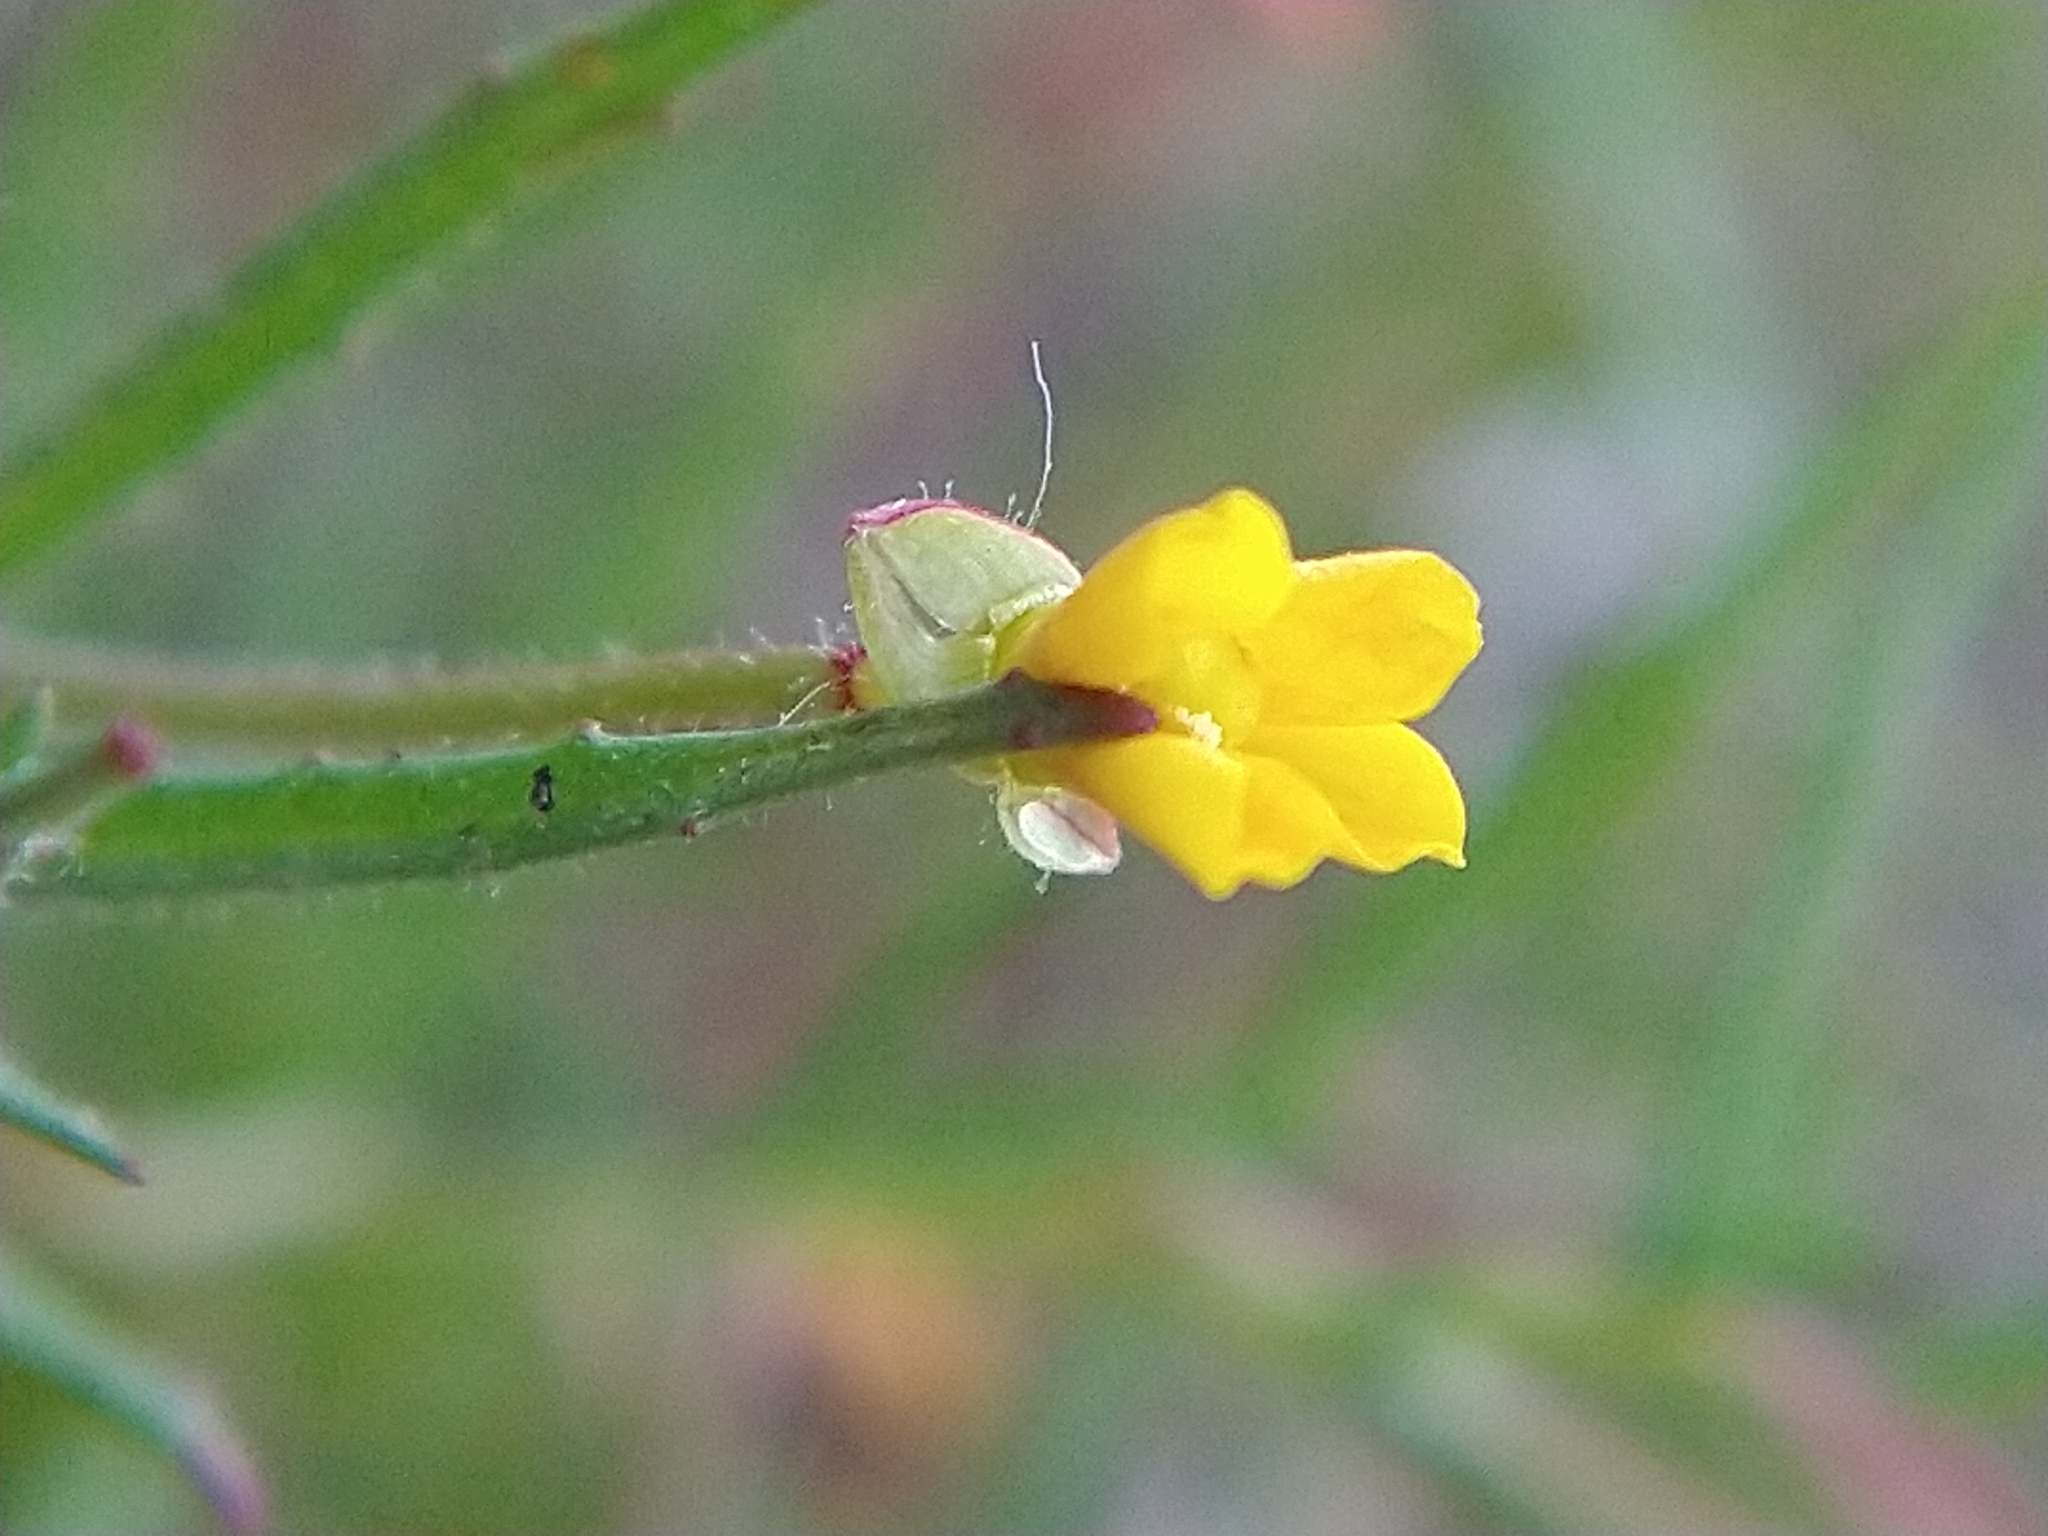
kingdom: Plantae
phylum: Tracheophyta
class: Magnoliopsida
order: Myrtales
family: Onagraceae
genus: Camissonia
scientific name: Camissonia contorta
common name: Contorted suncup
